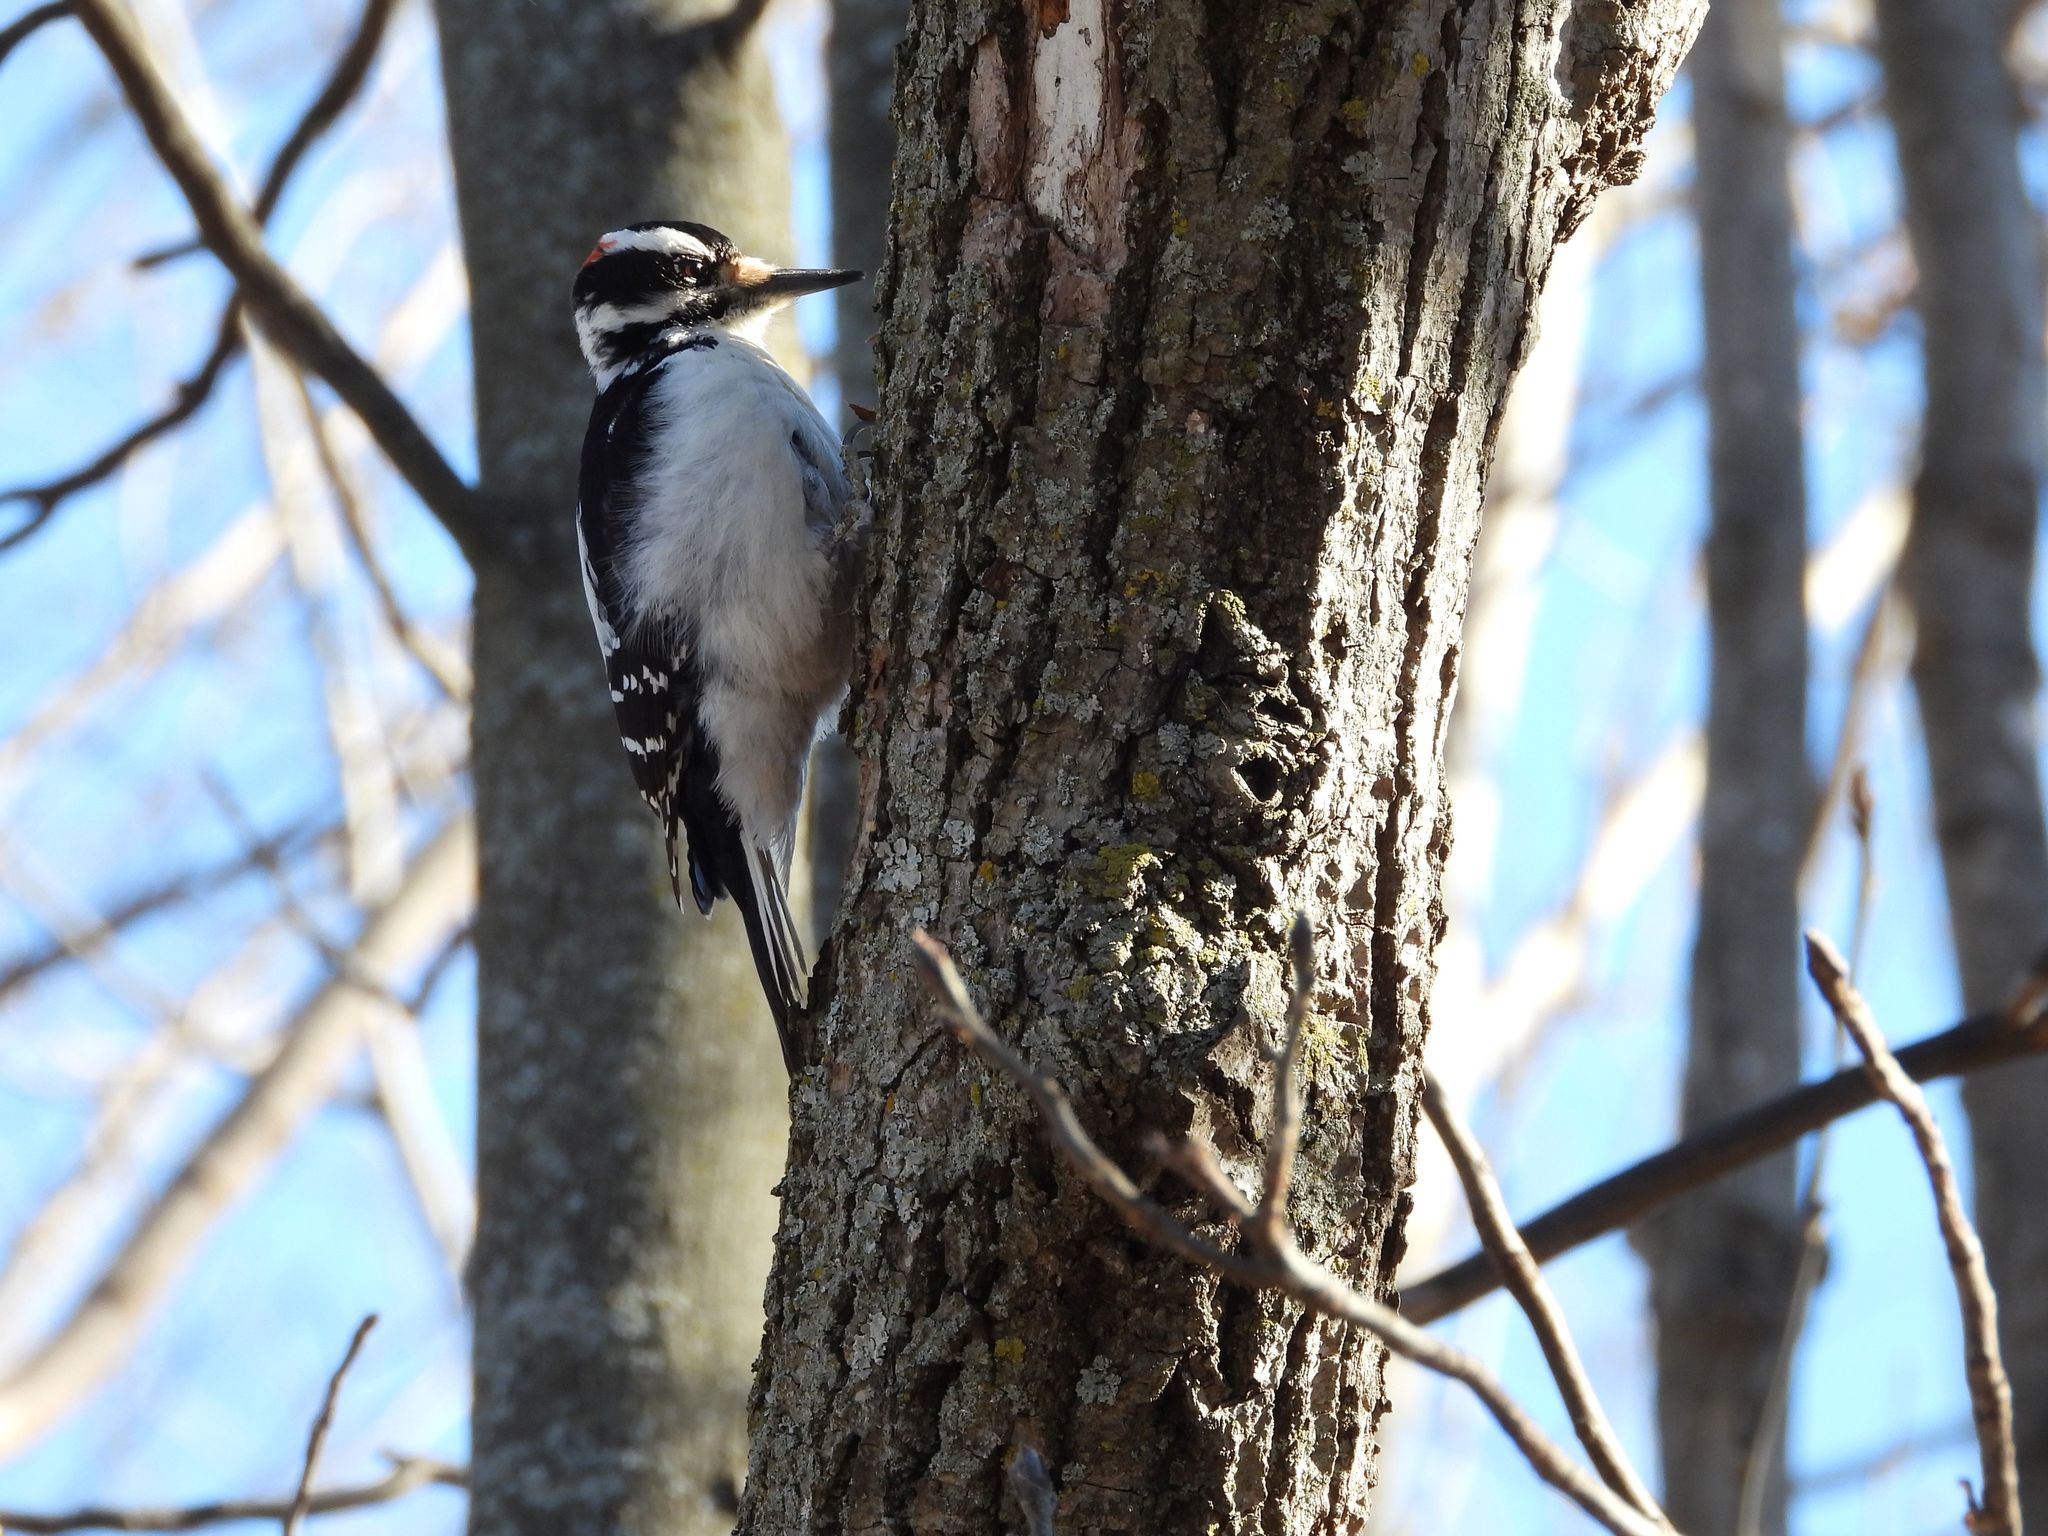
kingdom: Animalia
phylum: Chordata
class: Aves
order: Piciformes
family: Picidae
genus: Leuconotopicus
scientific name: Leuconotopicus villosus
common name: Hairy woodpecker
